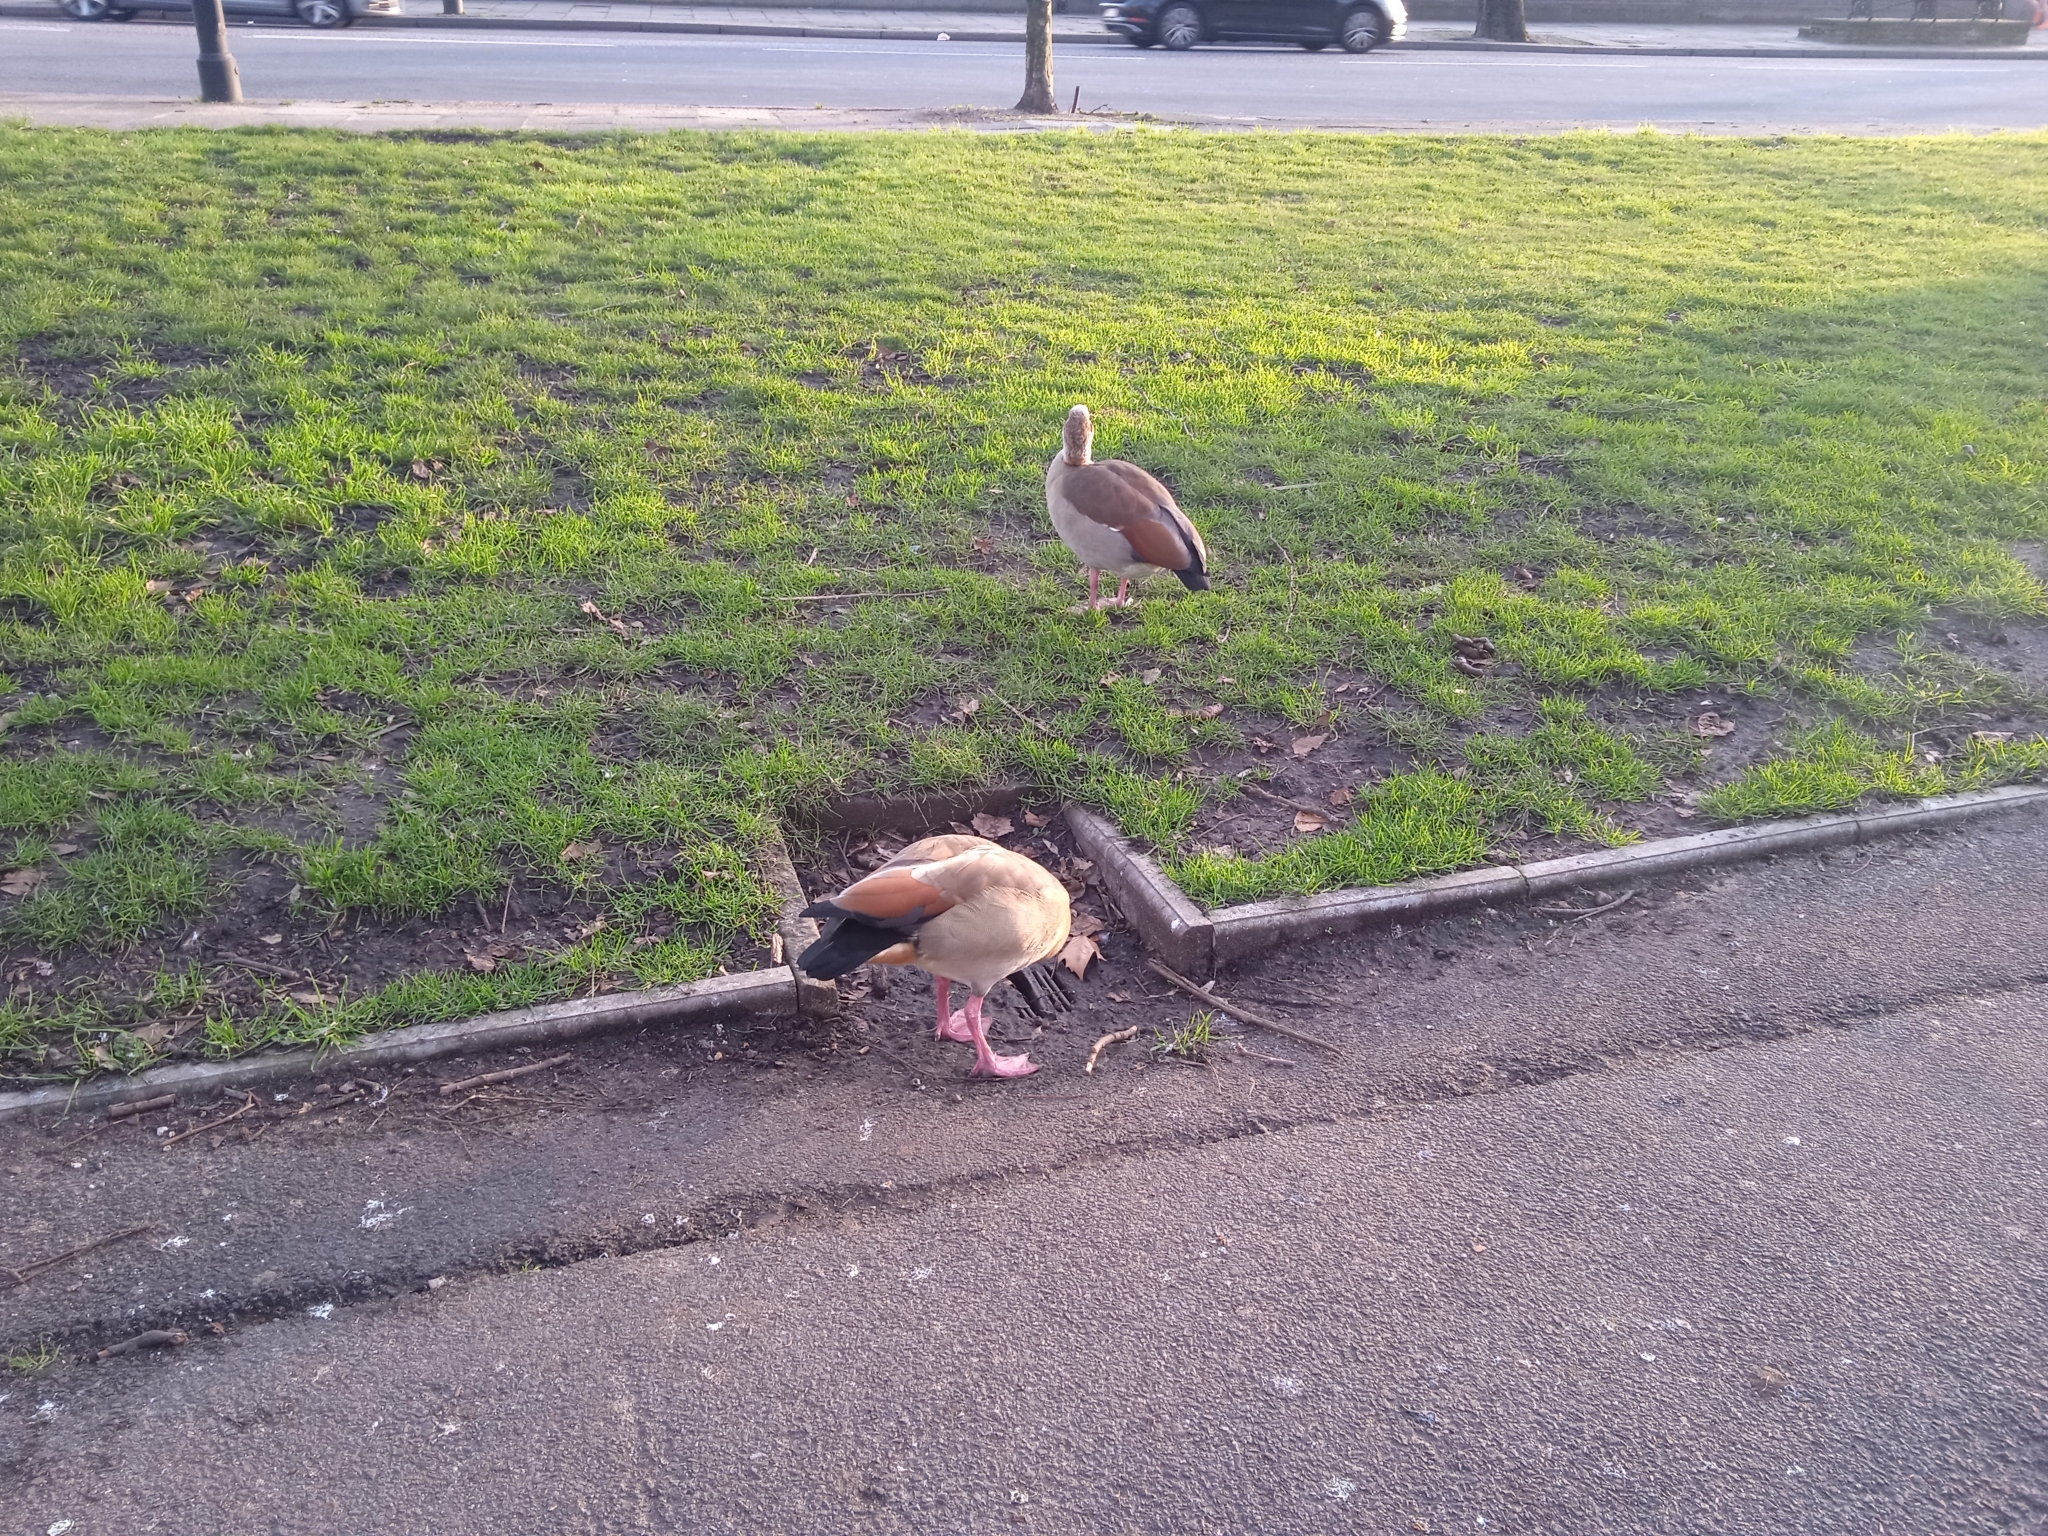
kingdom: Animalia
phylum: Chordata
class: Aves
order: Anseriformes
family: Anatidae
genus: Alopochen
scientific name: Alopochen aegyptiaca
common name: Egyptian goose
